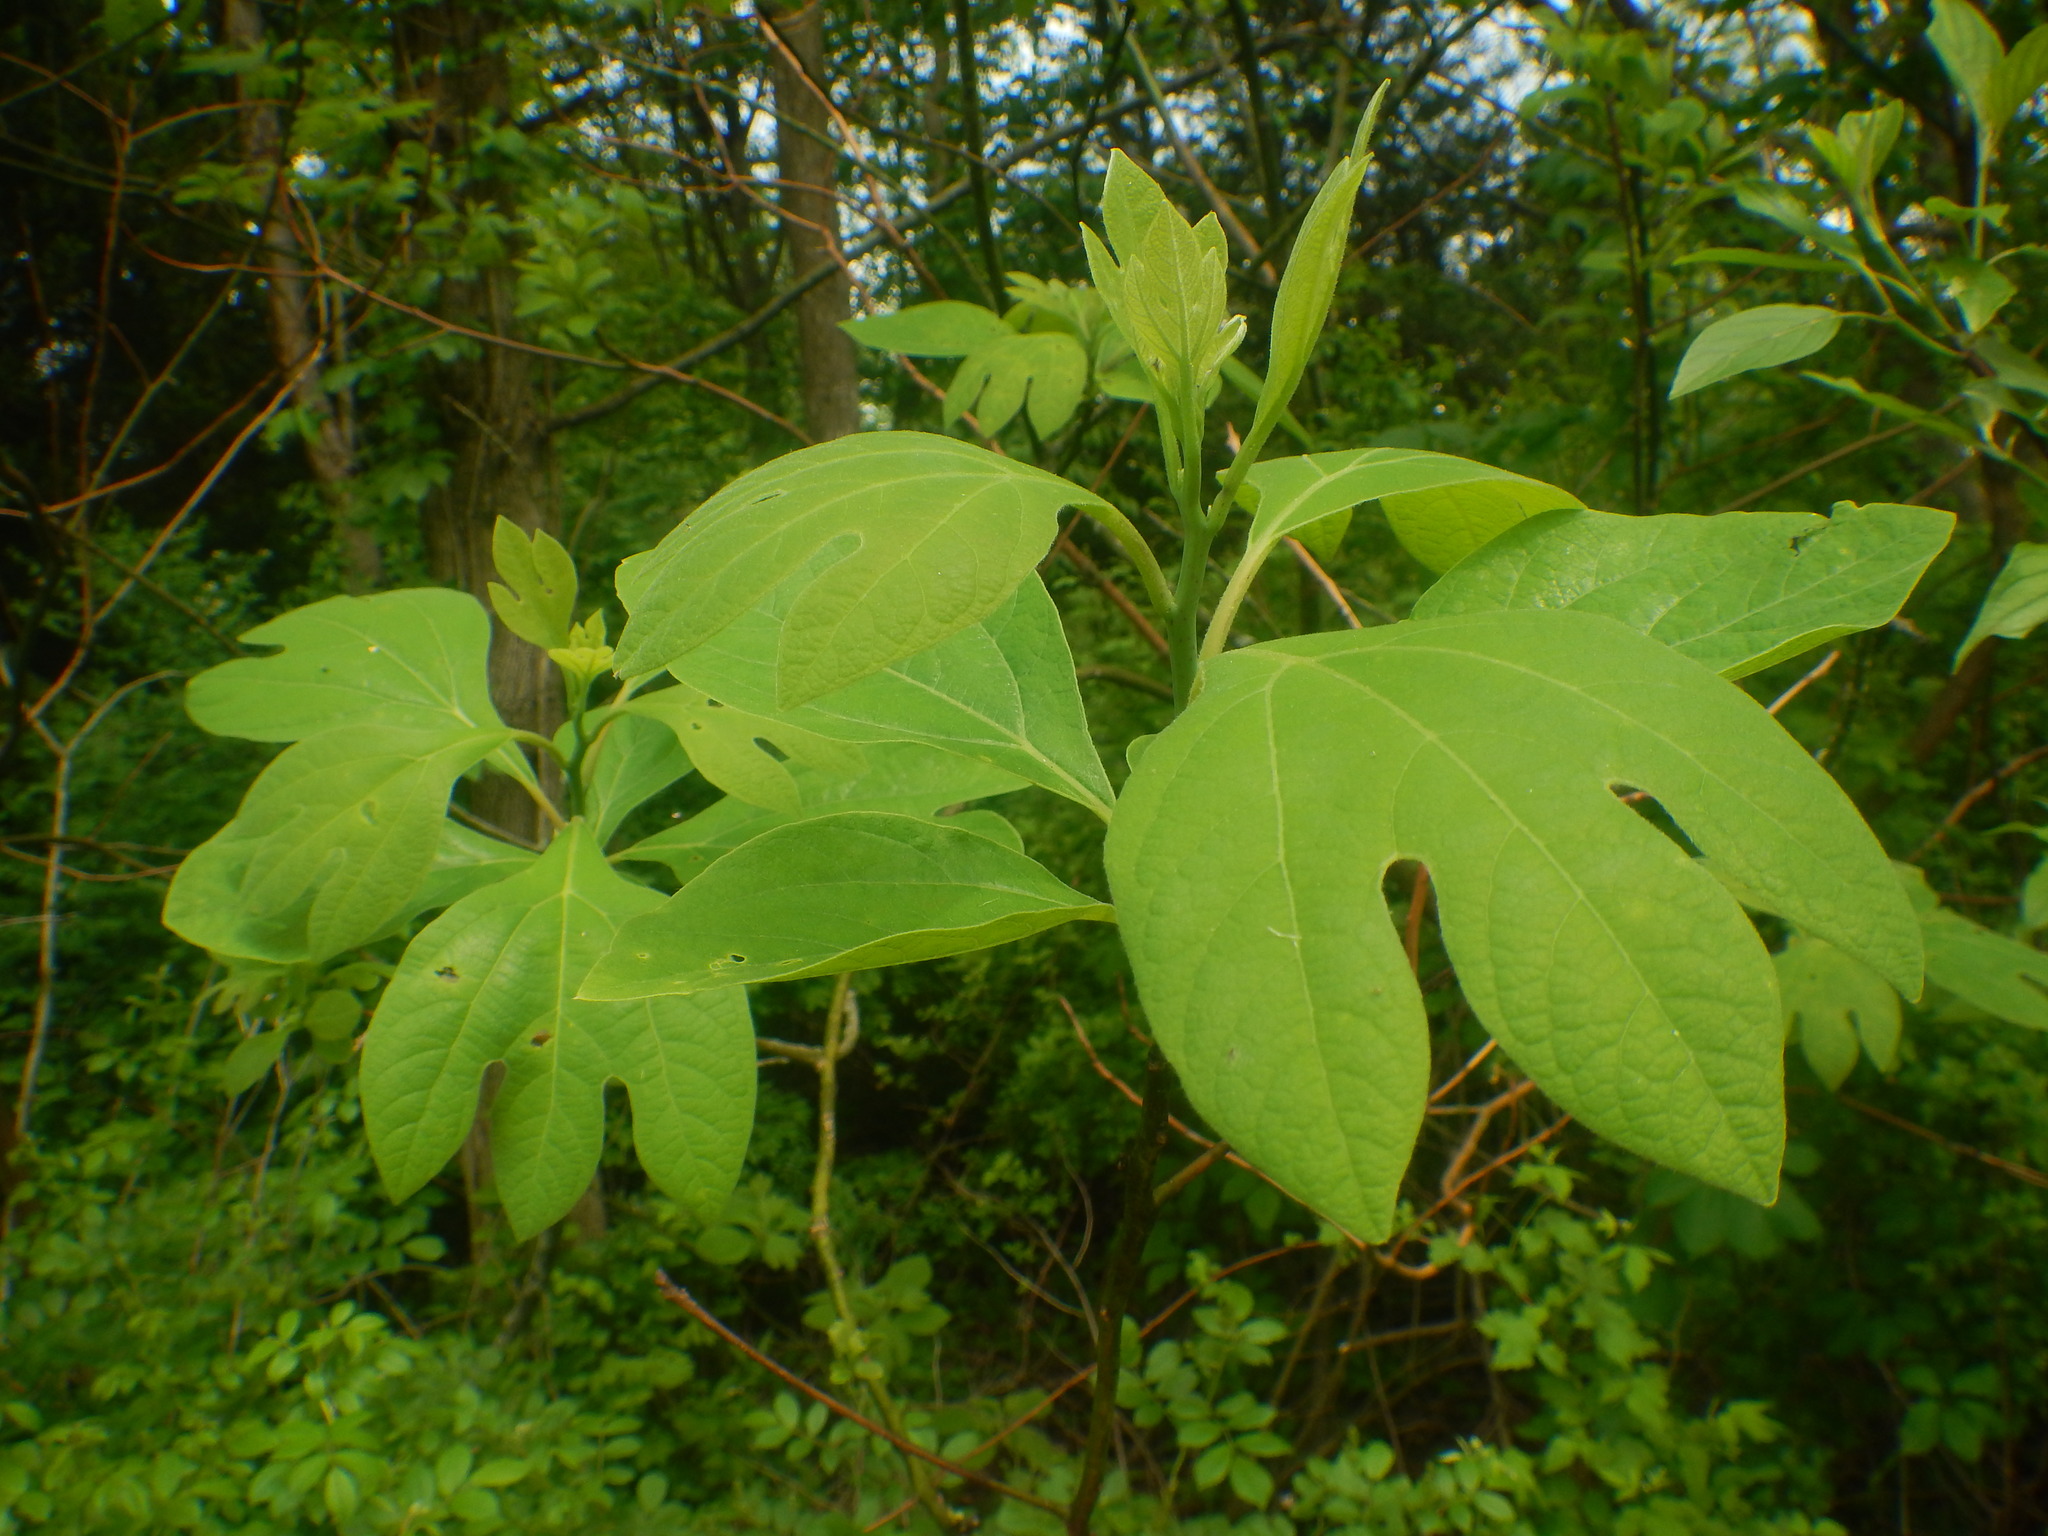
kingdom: Plantae
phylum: Tracheophyta
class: Magnoliopsida
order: Laurales
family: Lauraceae
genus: Sassafras
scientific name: Sassafras albidum
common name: Sassafras
